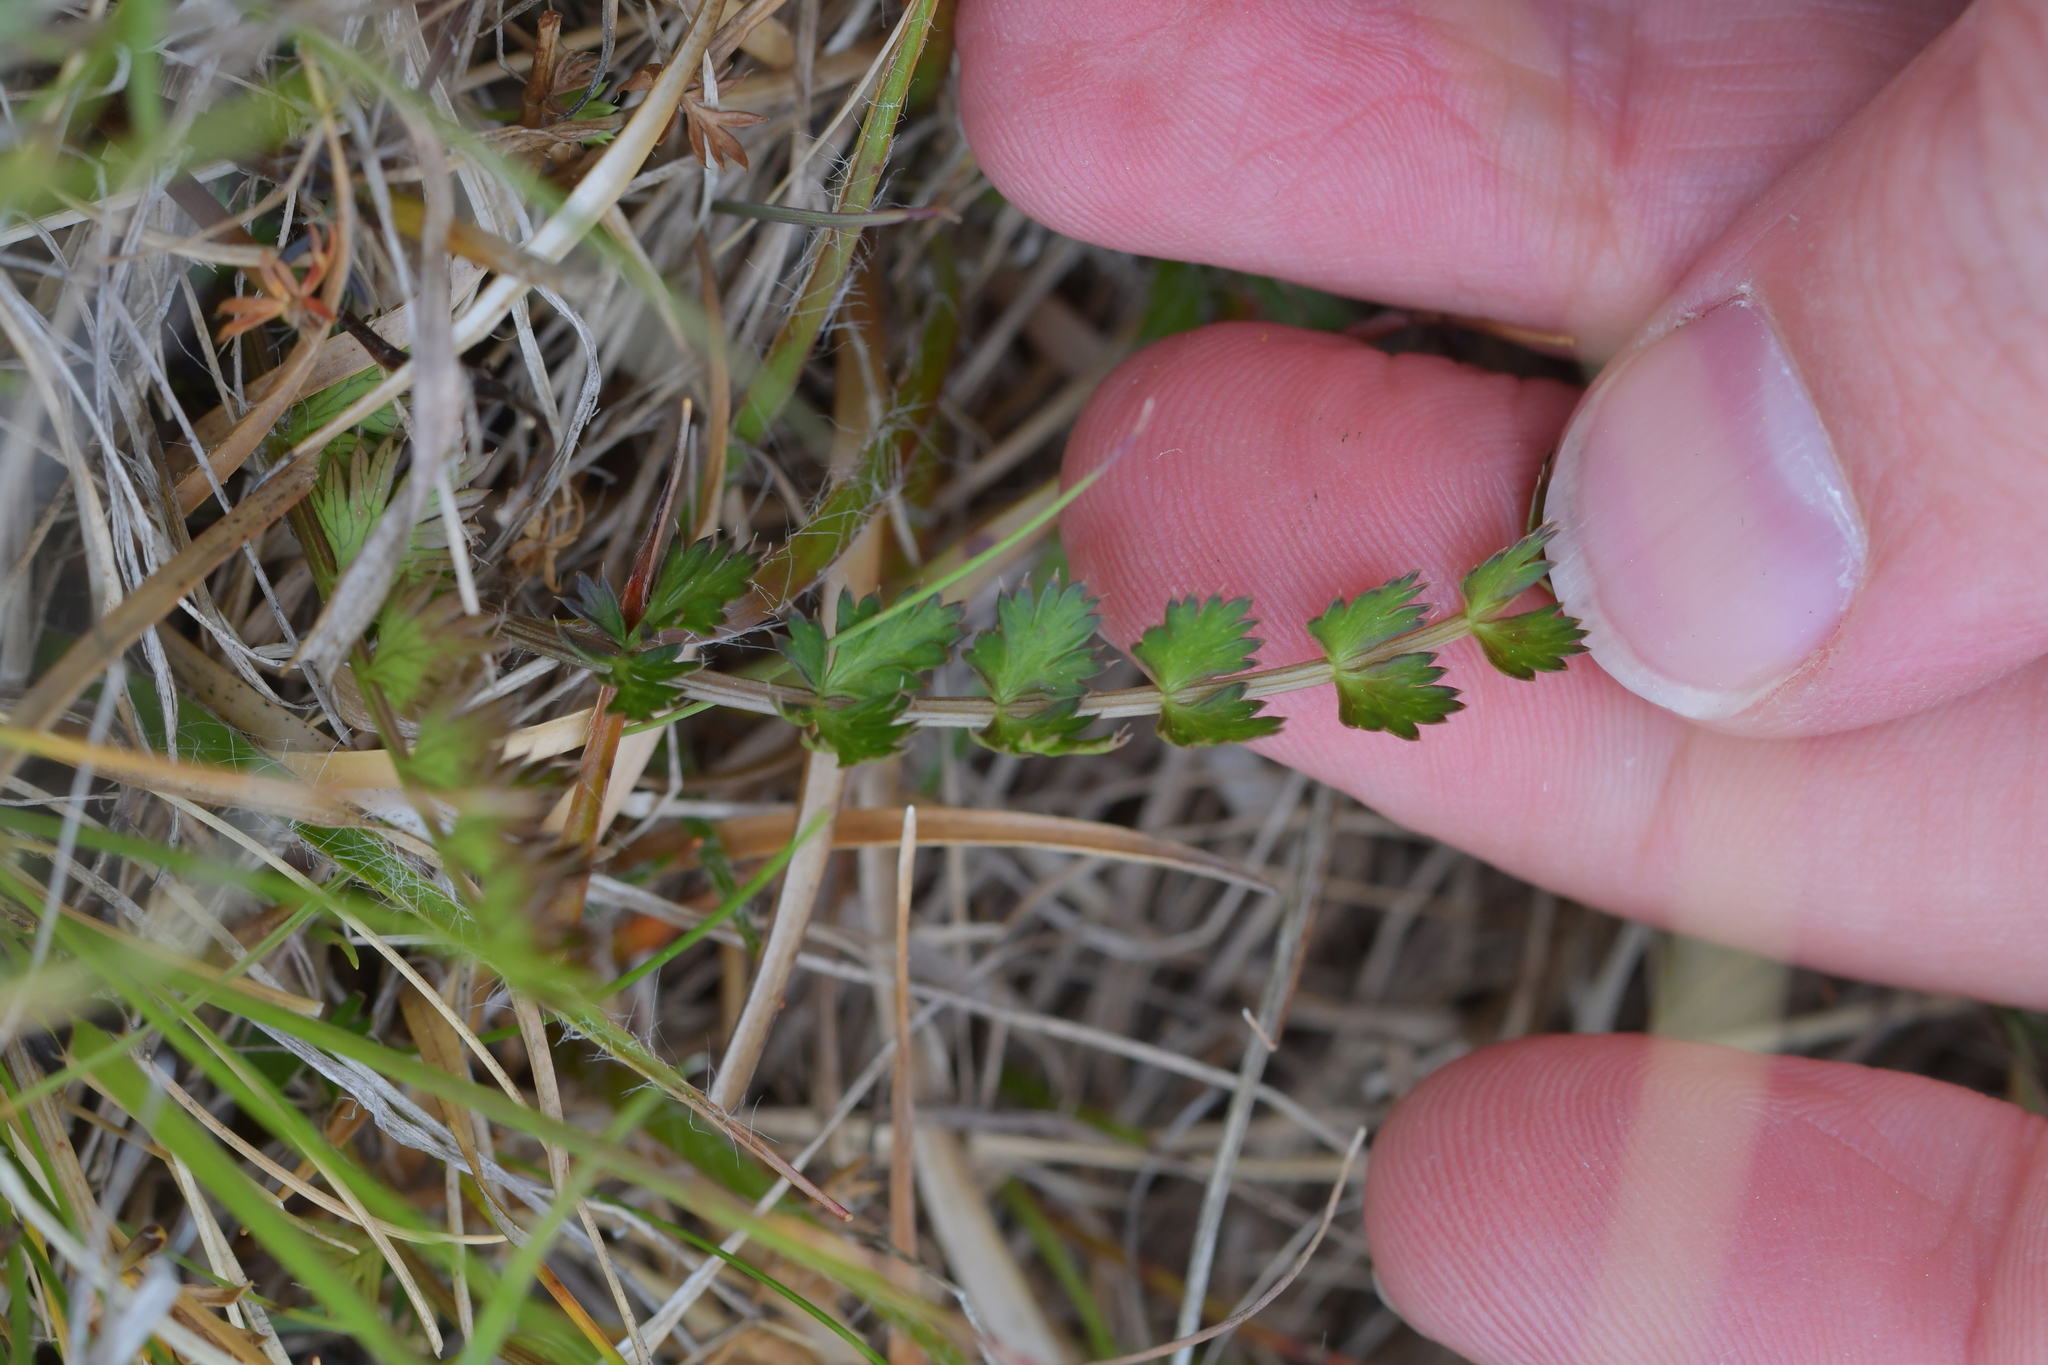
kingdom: Plantae
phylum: Tracheophyta
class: Magnoliopsida
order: Apiales
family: Apiaceae
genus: Anisotome
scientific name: Anisotome aromatica
